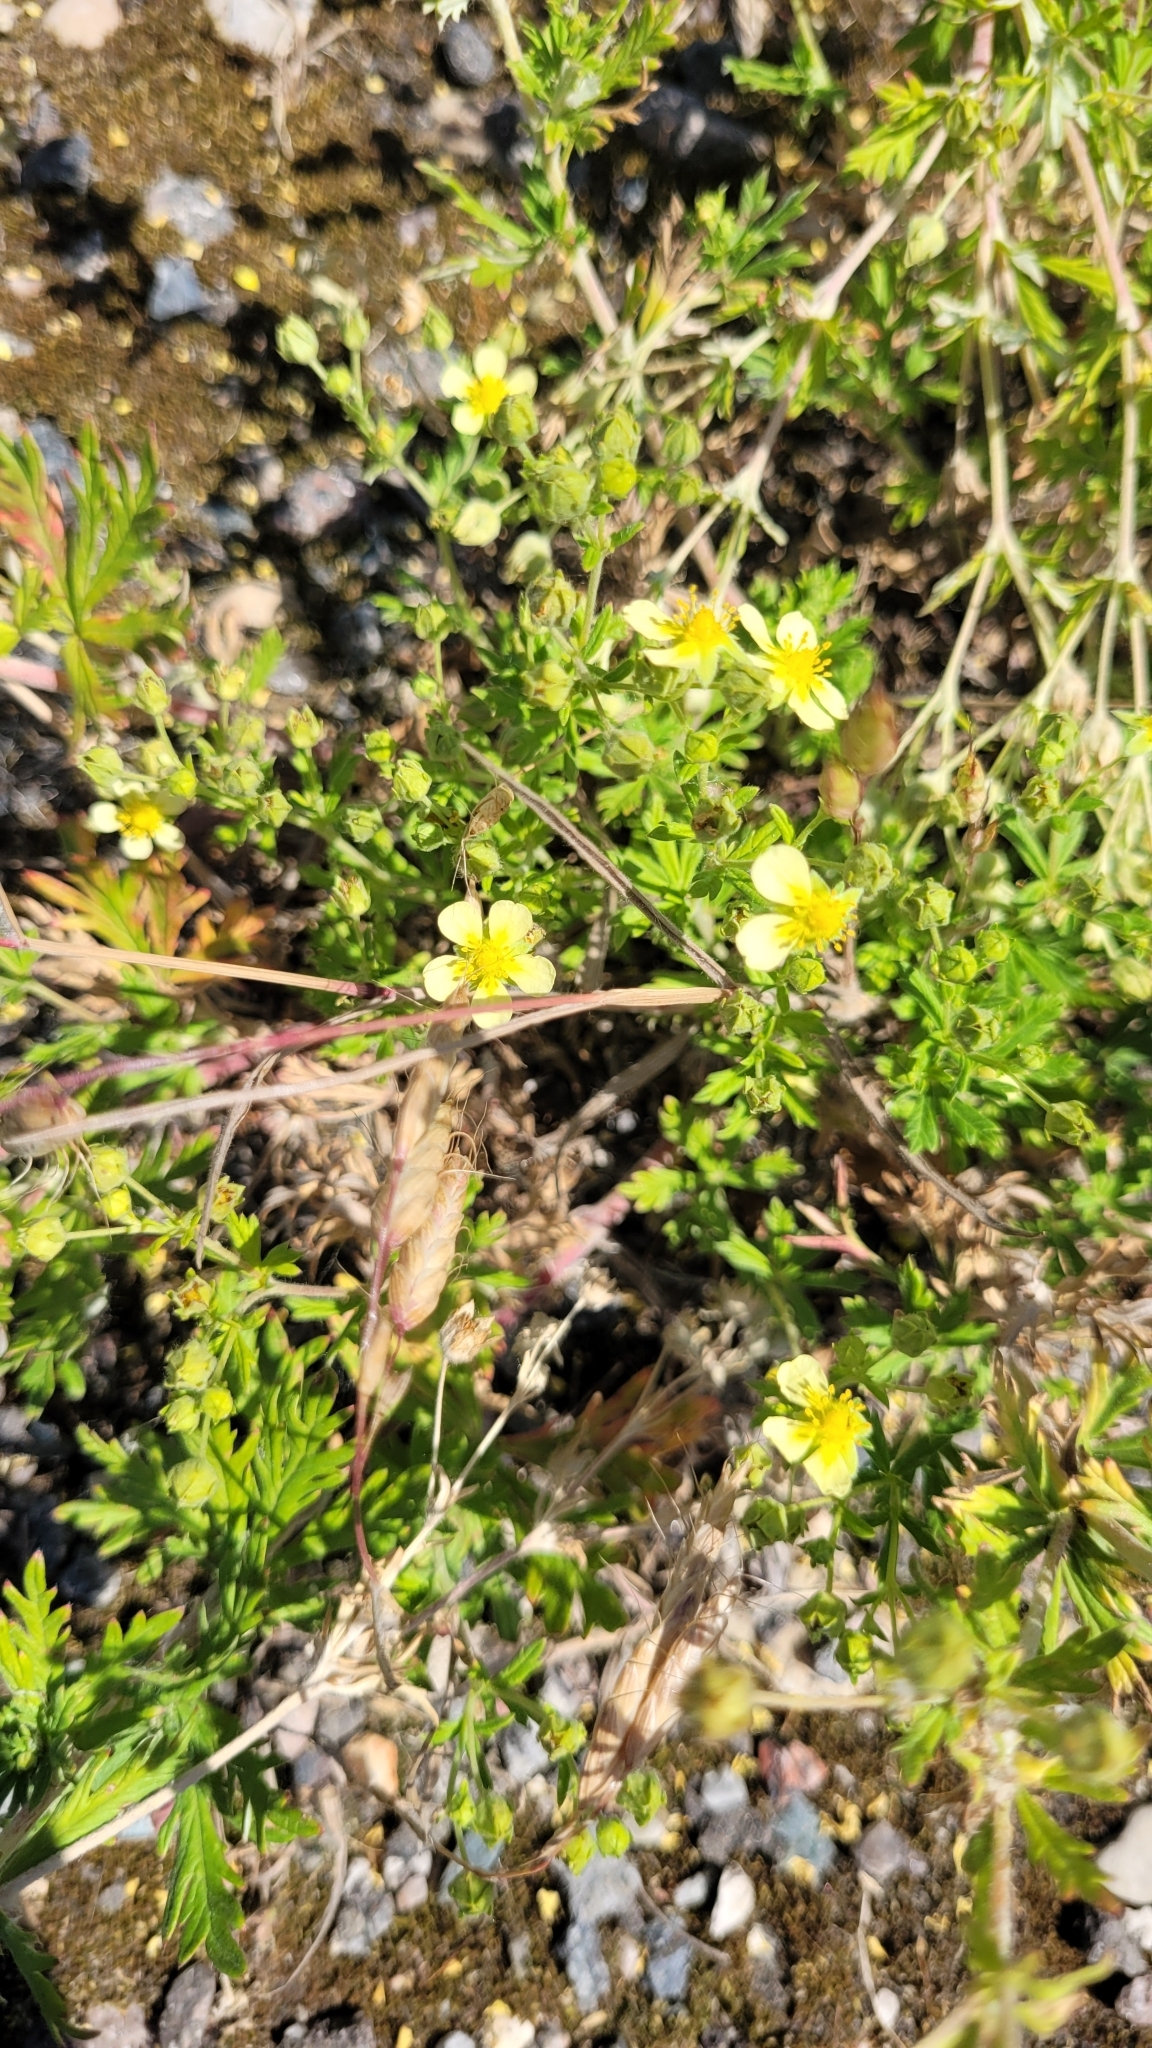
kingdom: Plantae
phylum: Tracheophyta
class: Magnoliopsida
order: Rosales
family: Rosaceae
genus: Potentilla
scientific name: Potentilla argentea
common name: Hoary cinquefoil
